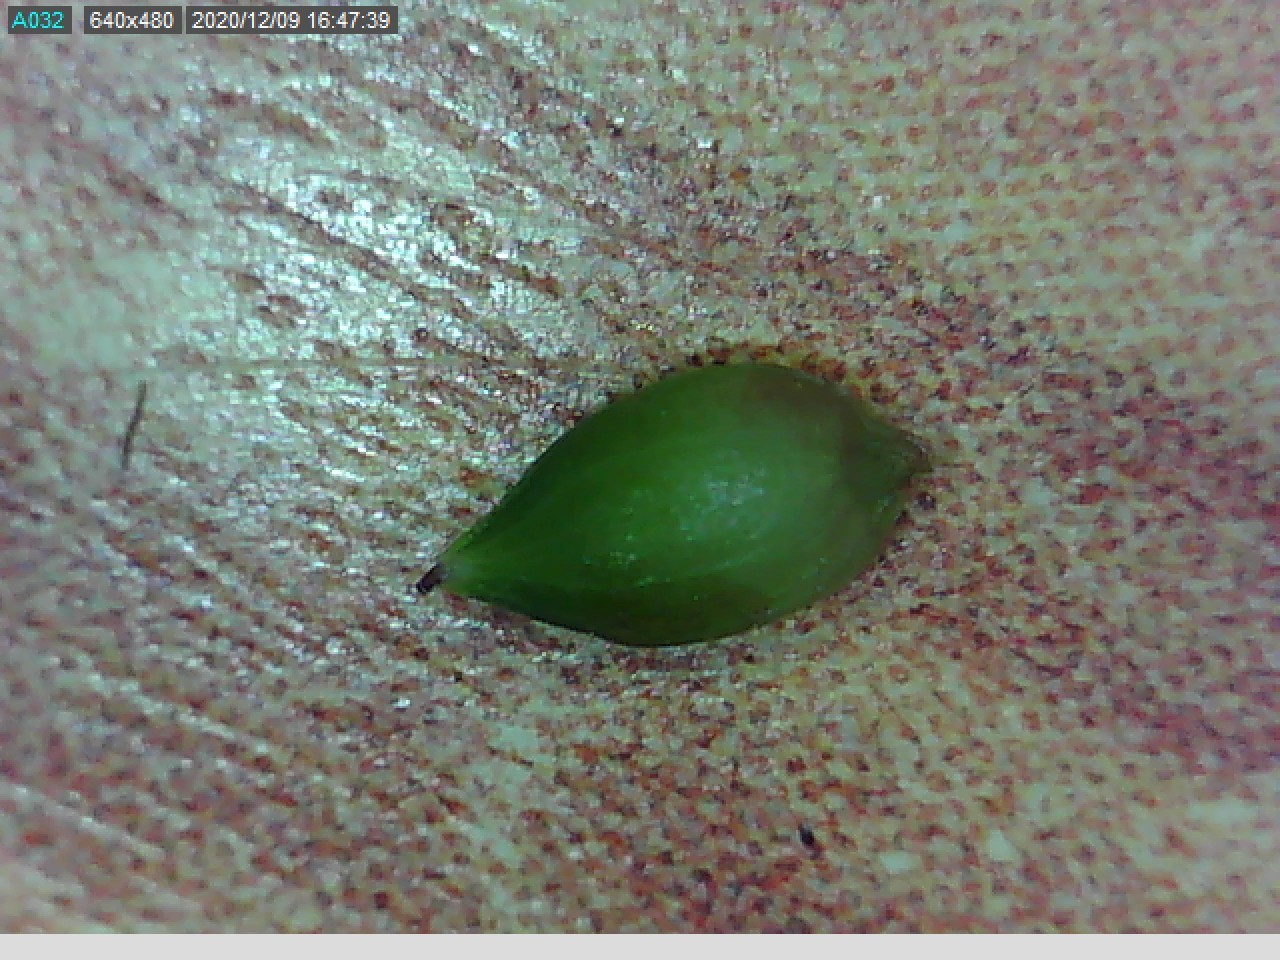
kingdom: Plantae
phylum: Tracheophyta
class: Liliopsida
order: Poales
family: Cyperaceae
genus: Carex
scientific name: Carex geminata
